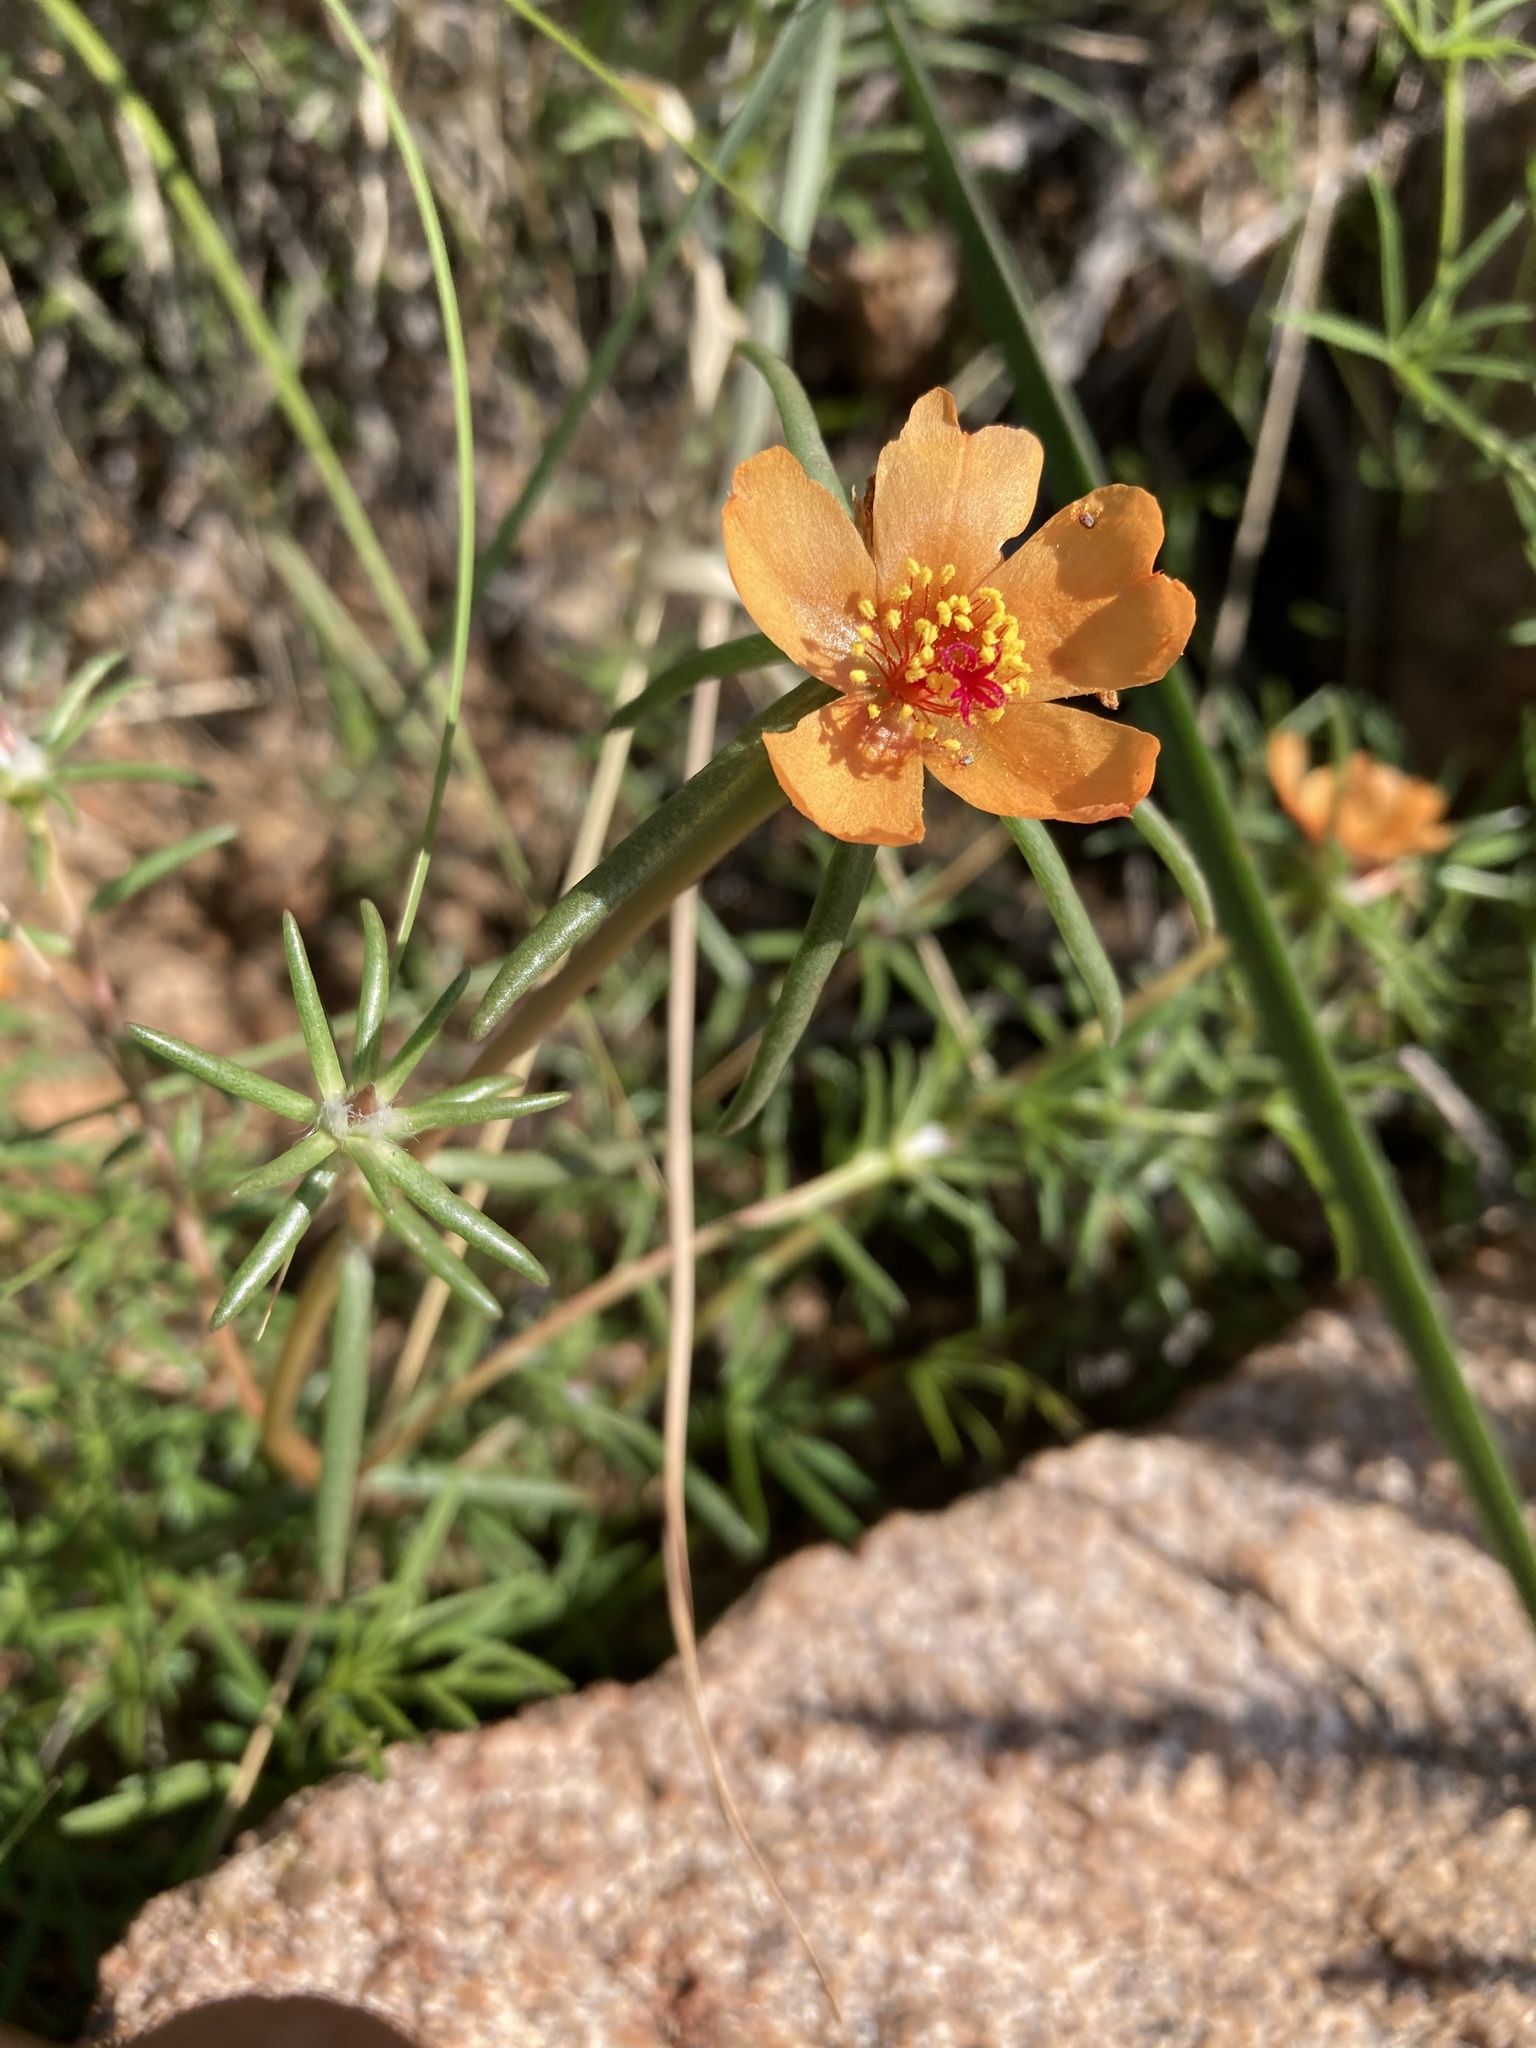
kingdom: Plantae
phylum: Tracheophyta
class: Magnoliopsida
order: Caryophyllales
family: Portulacaceae
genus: Portulaca
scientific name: Portulaca suffrutescens
